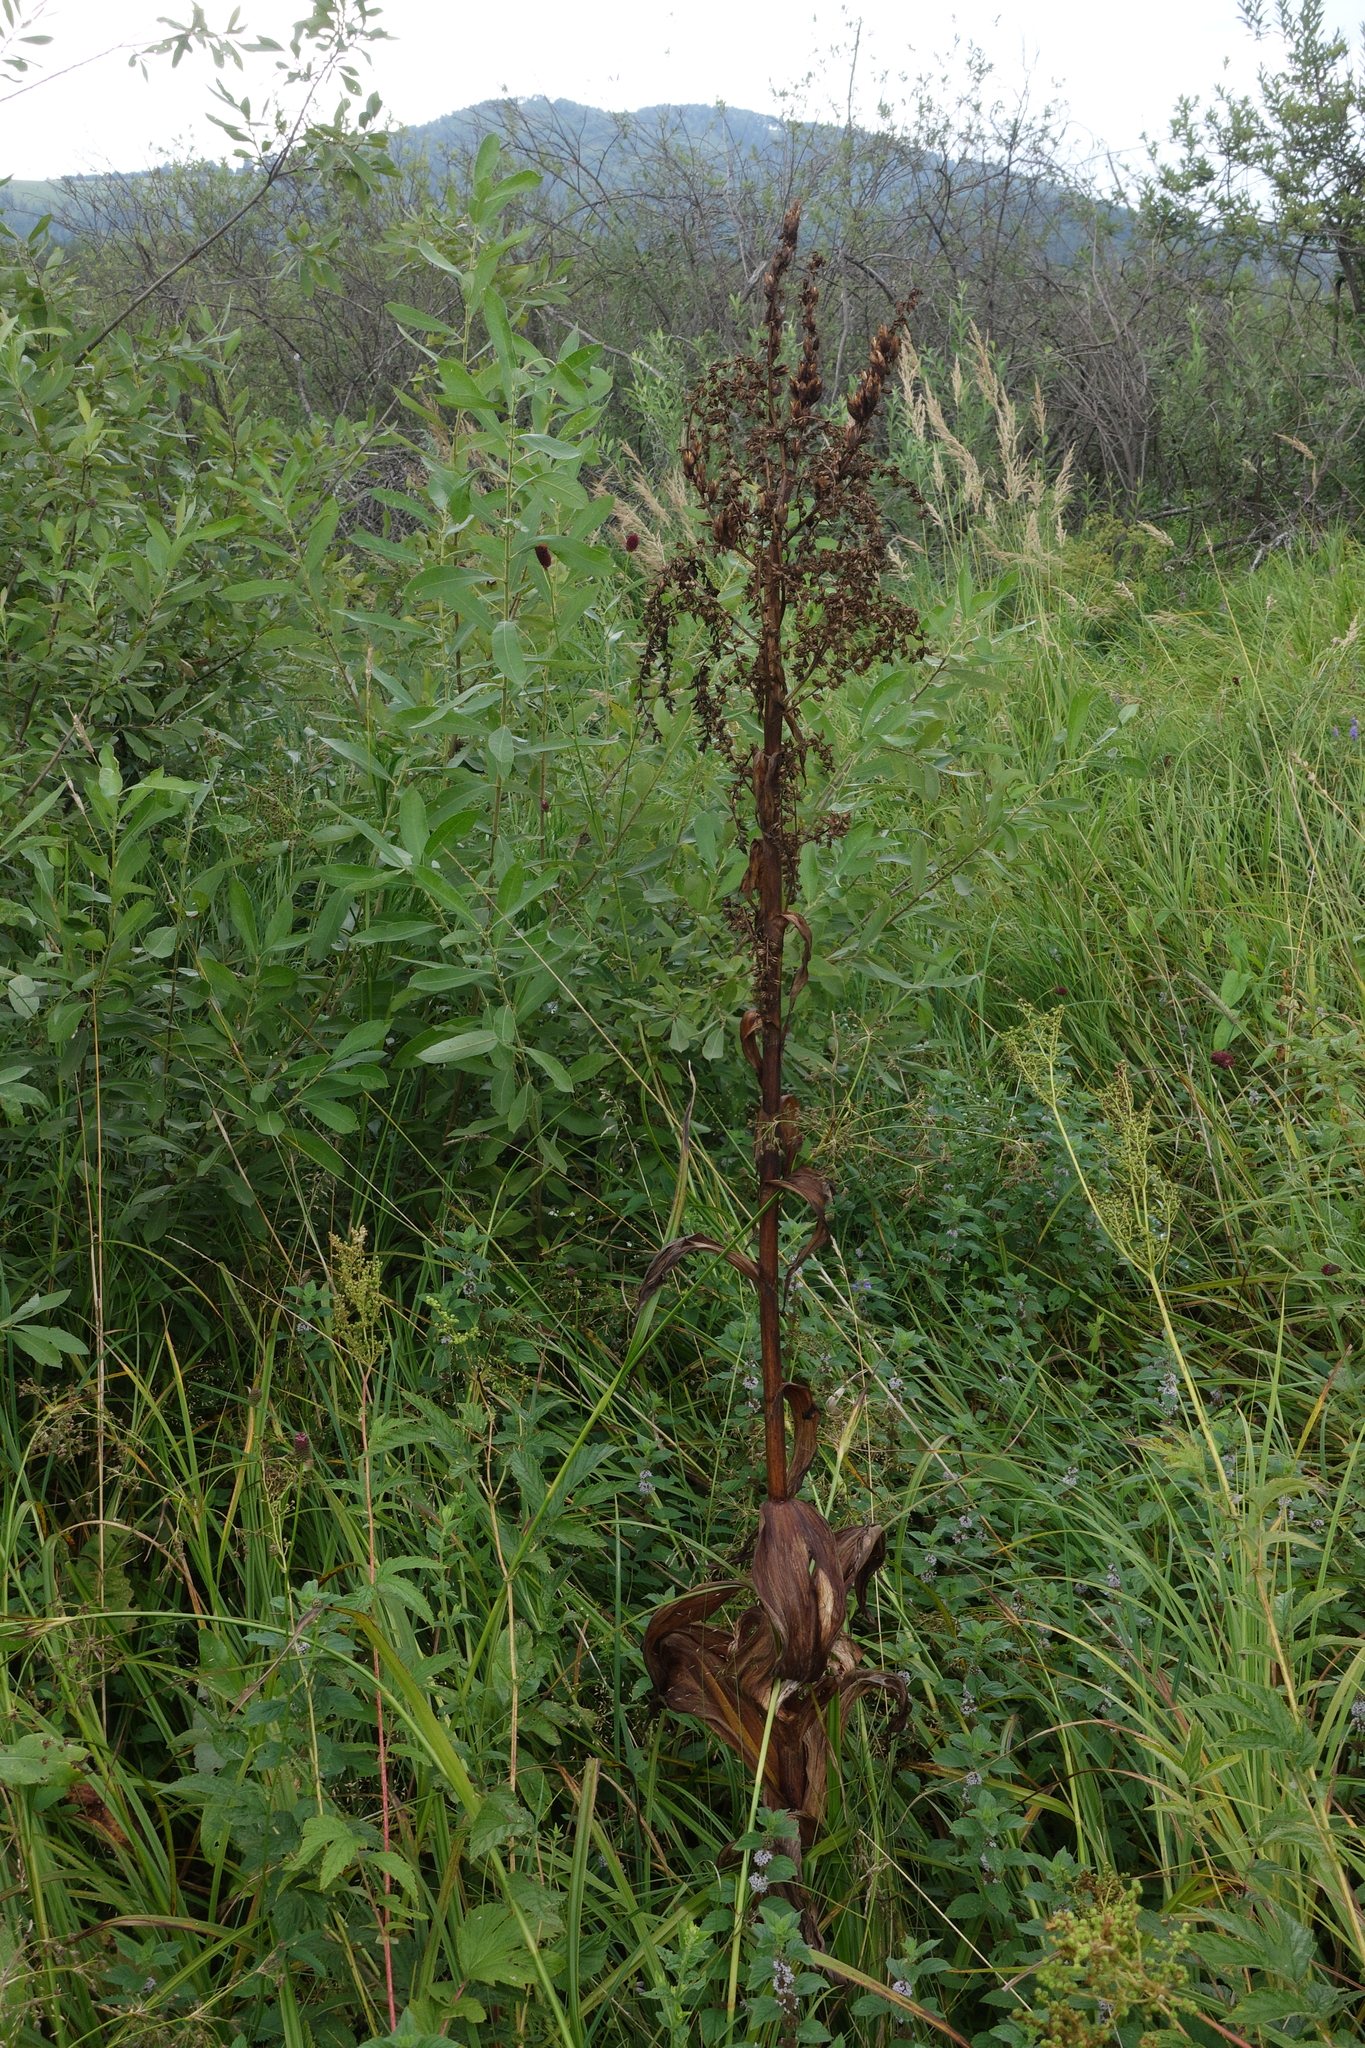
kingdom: Plantae
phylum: Tracheophyta
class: Liliopsida
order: Liliales
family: Melanthiaceae
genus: Veratrum
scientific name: Veratrum lobelianum
